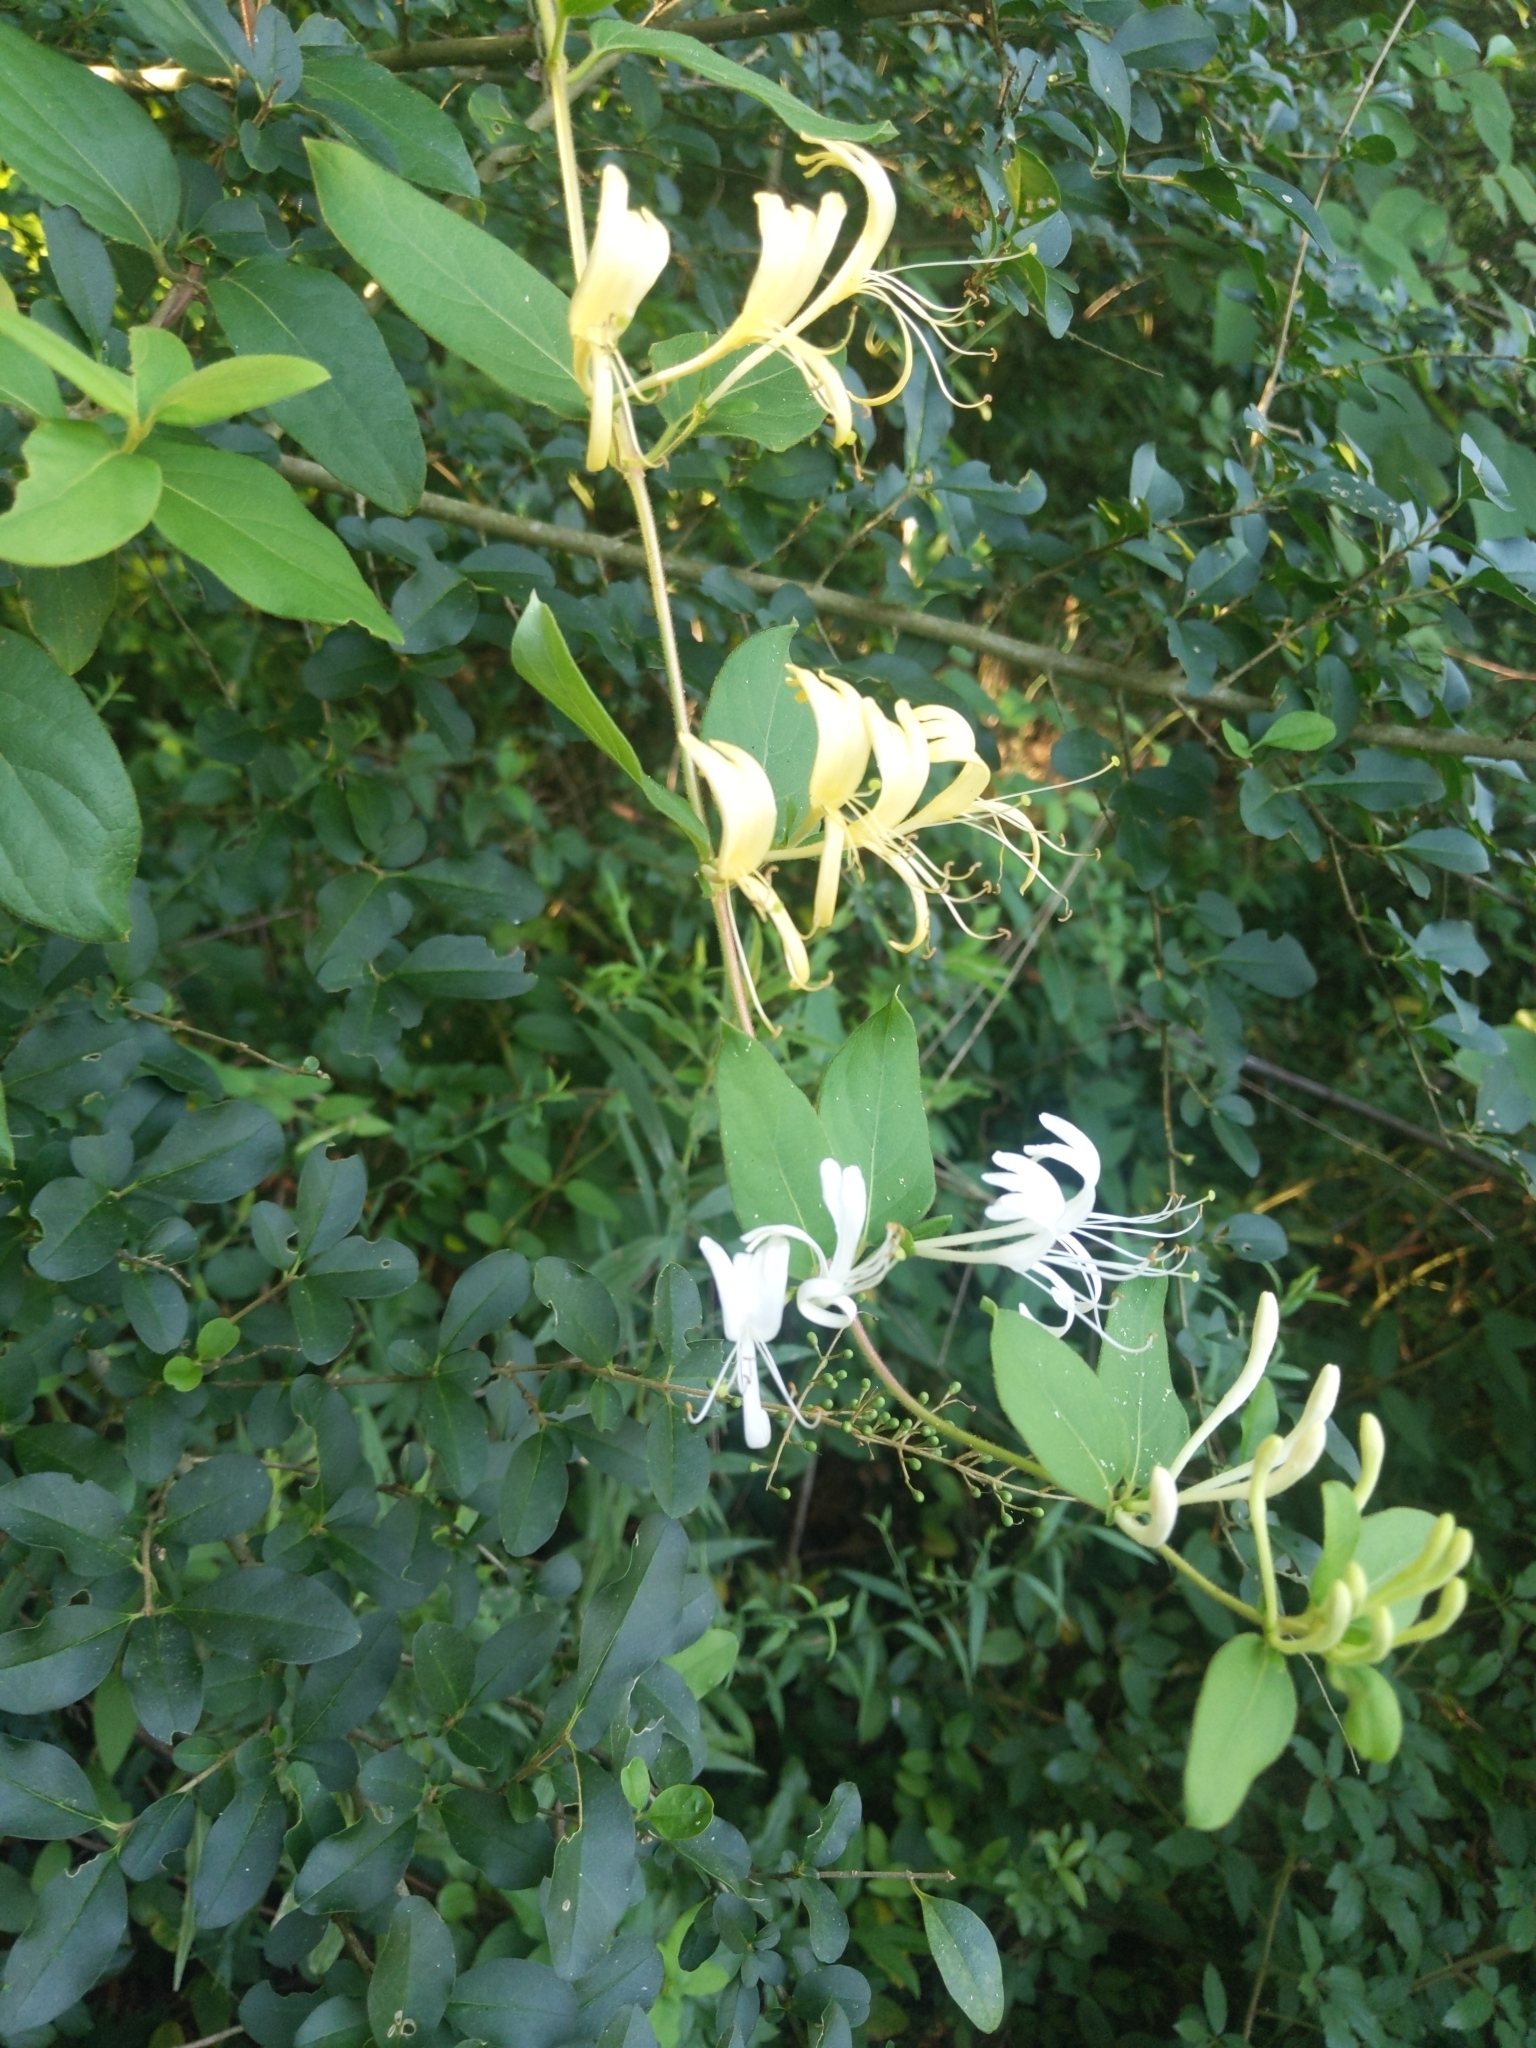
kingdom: Plantae
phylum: Tracheophyta
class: Magnoliopsida
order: Dipsacales
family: Caprifoliaceae
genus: Lonicera
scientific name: Lonicera japonica
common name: Japanese honeysuckle
